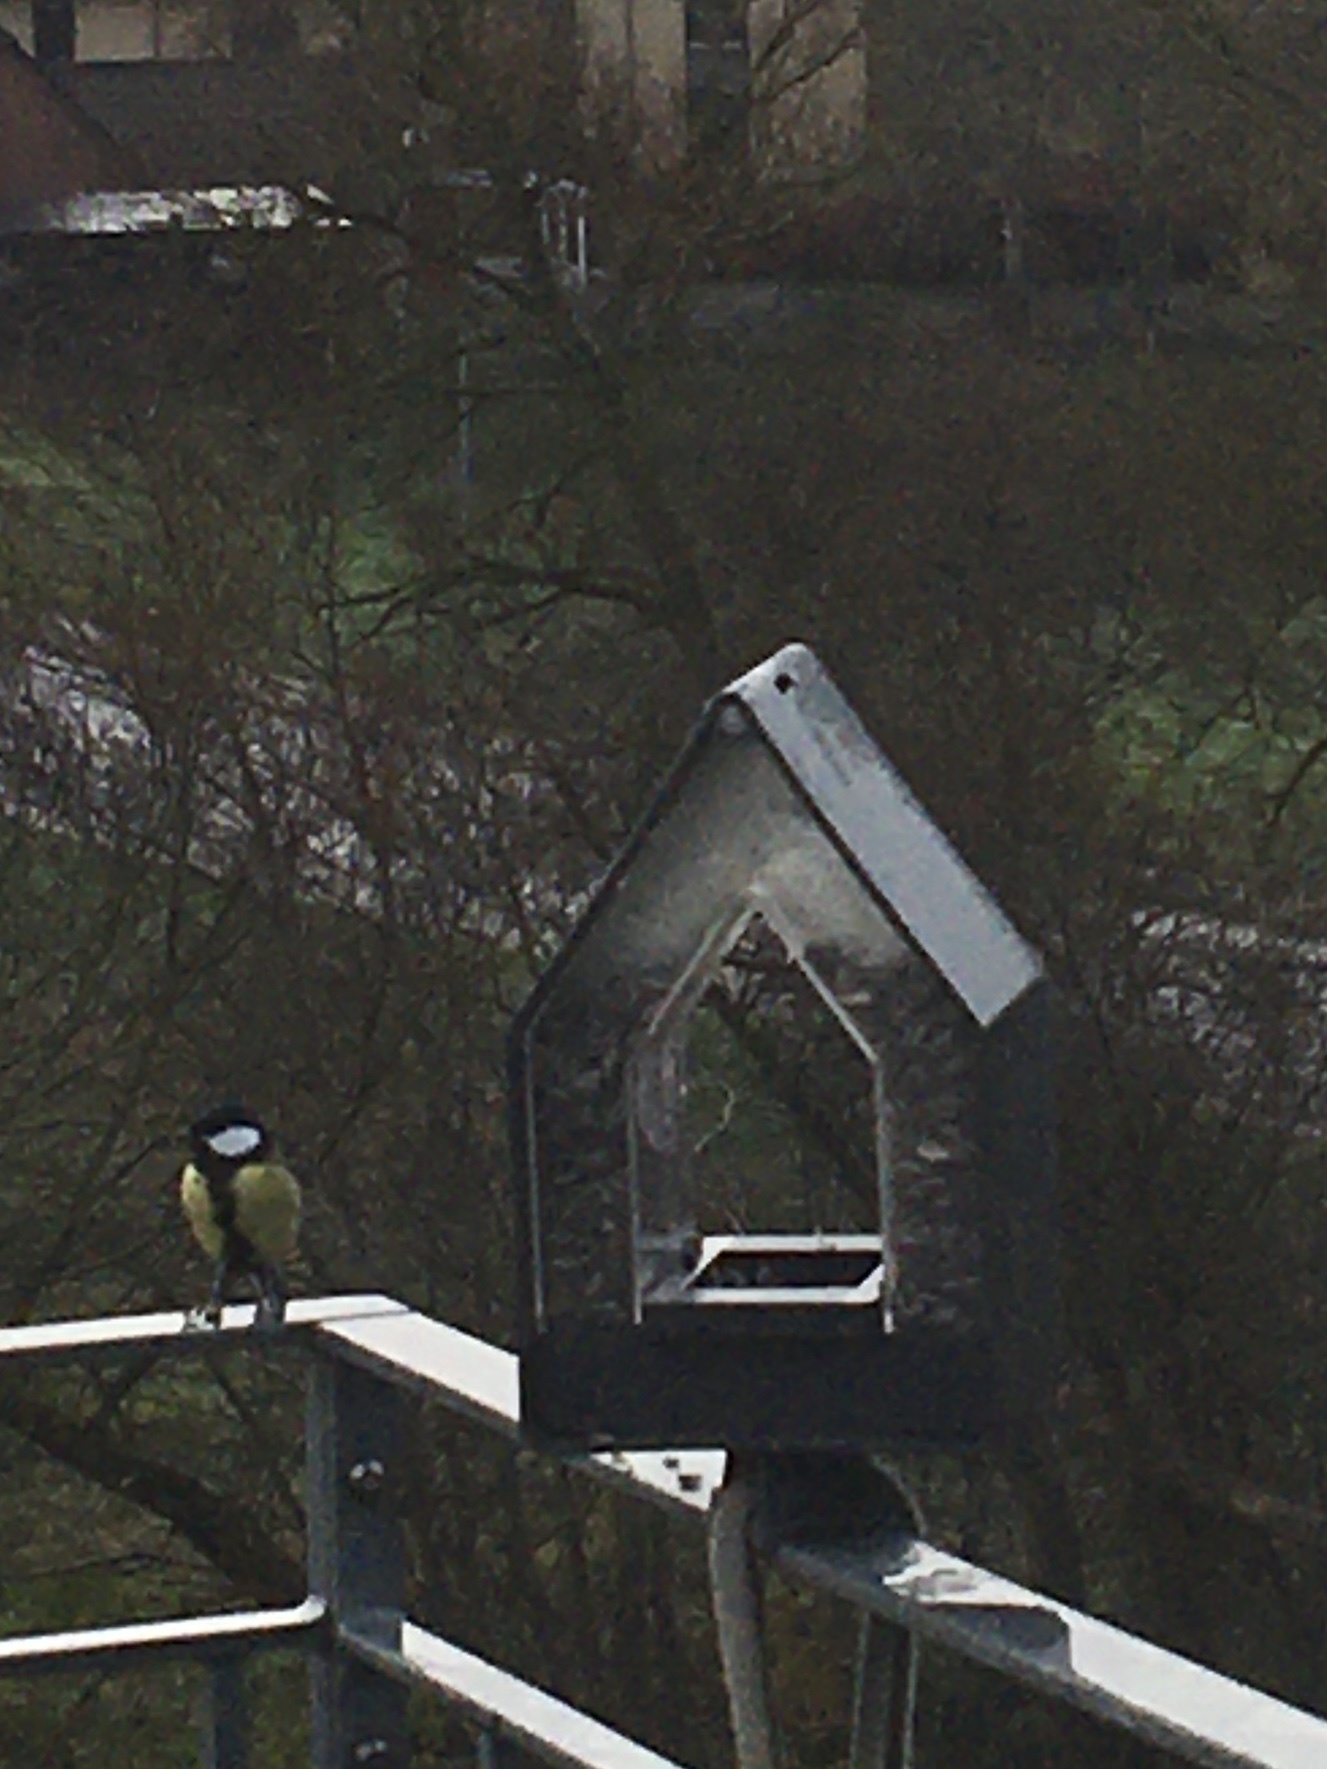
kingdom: Animalia
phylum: Chordata
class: Aves
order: Passeriformes
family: Paridae
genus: Parus
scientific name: Parus major
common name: Great tit
